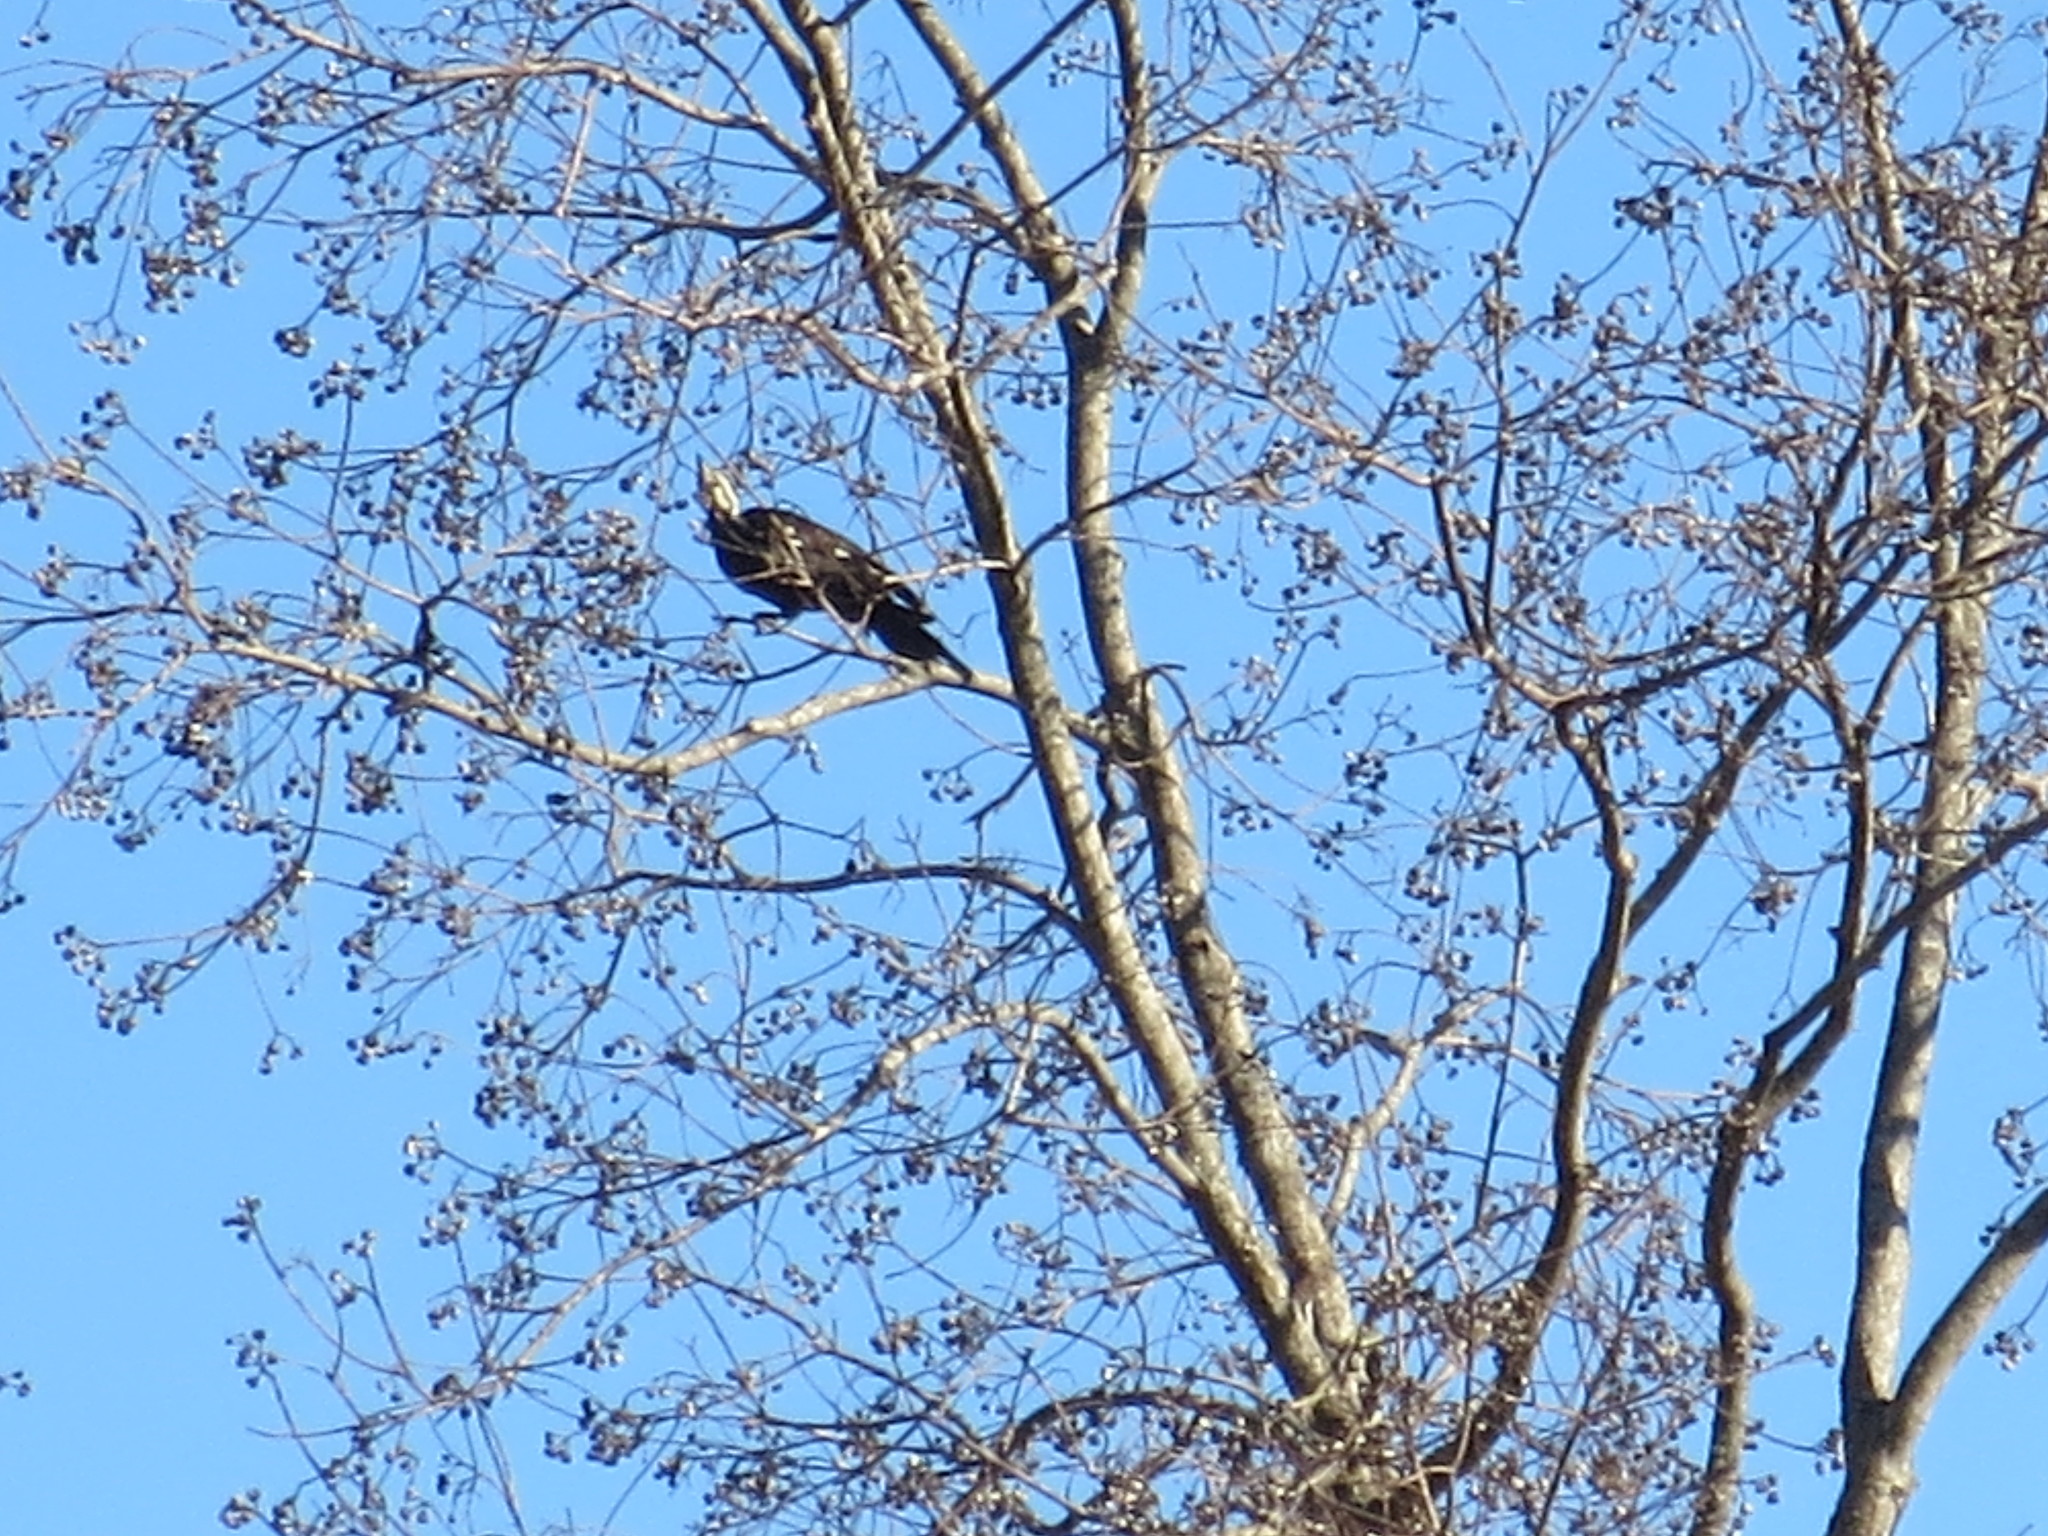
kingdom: Animalia
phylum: Chordata
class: Aves
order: Piciformes
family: Picidae
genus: Dryocopus
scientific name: Dryocopus pileatus
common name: Pileated woodpecker
